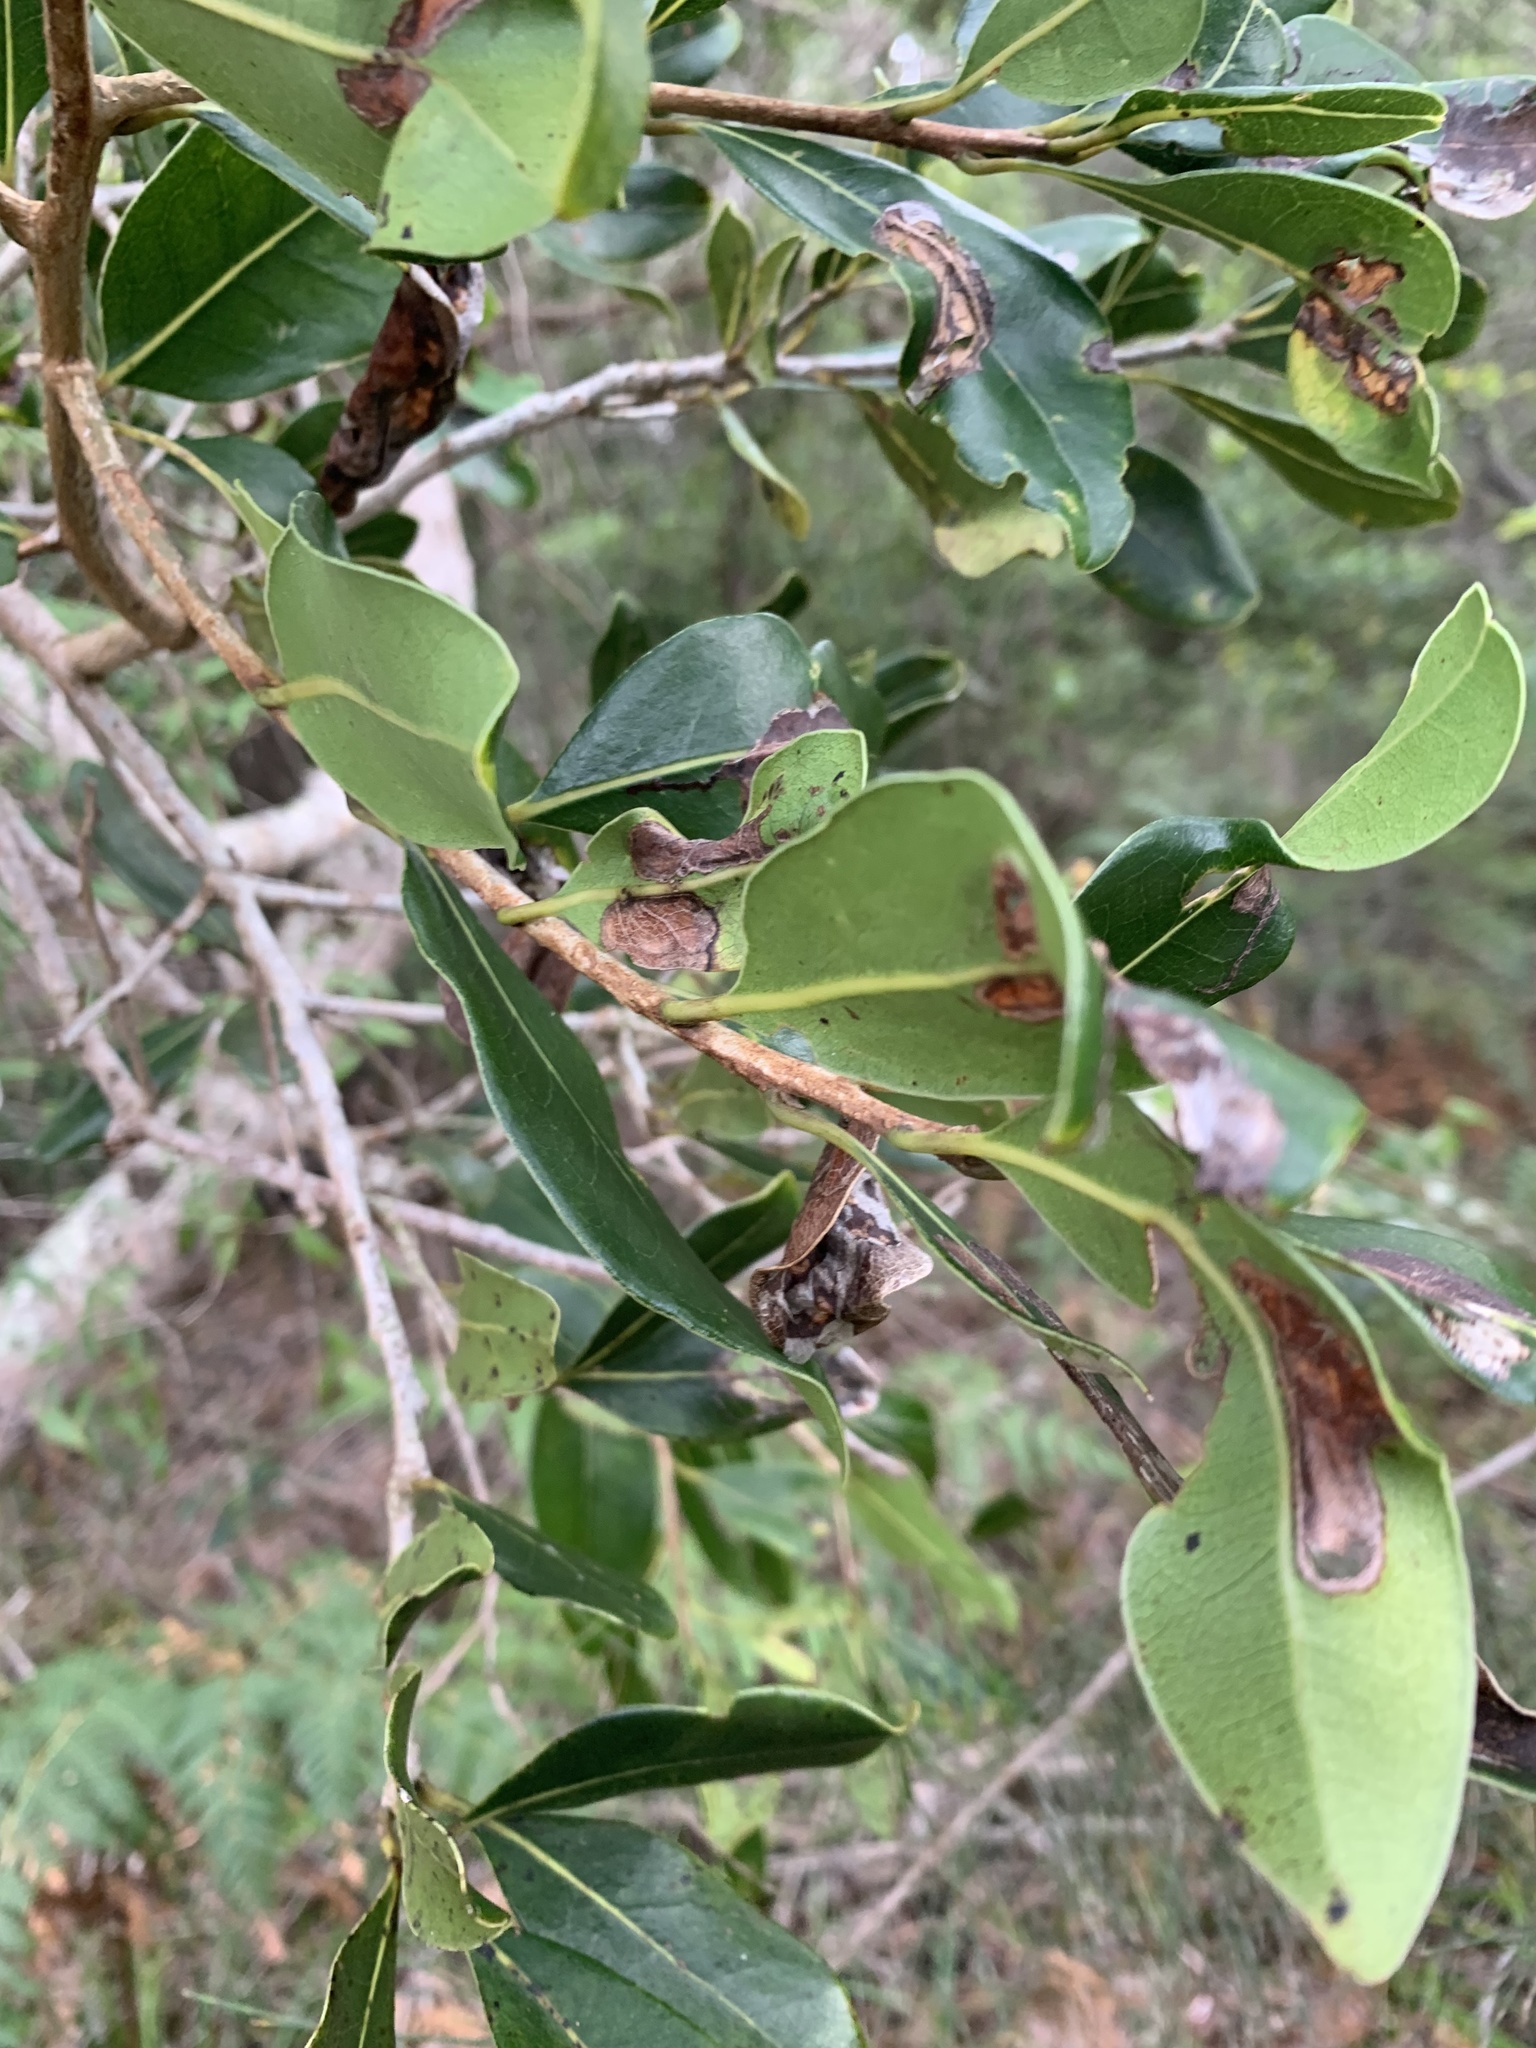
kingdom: Plantae
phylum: Tracheophyta
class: Magnoliopsida
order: Ericales
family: Primulaceae
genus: Myrsine
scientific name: Myrsine variabilis
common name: Brush muttonwood
